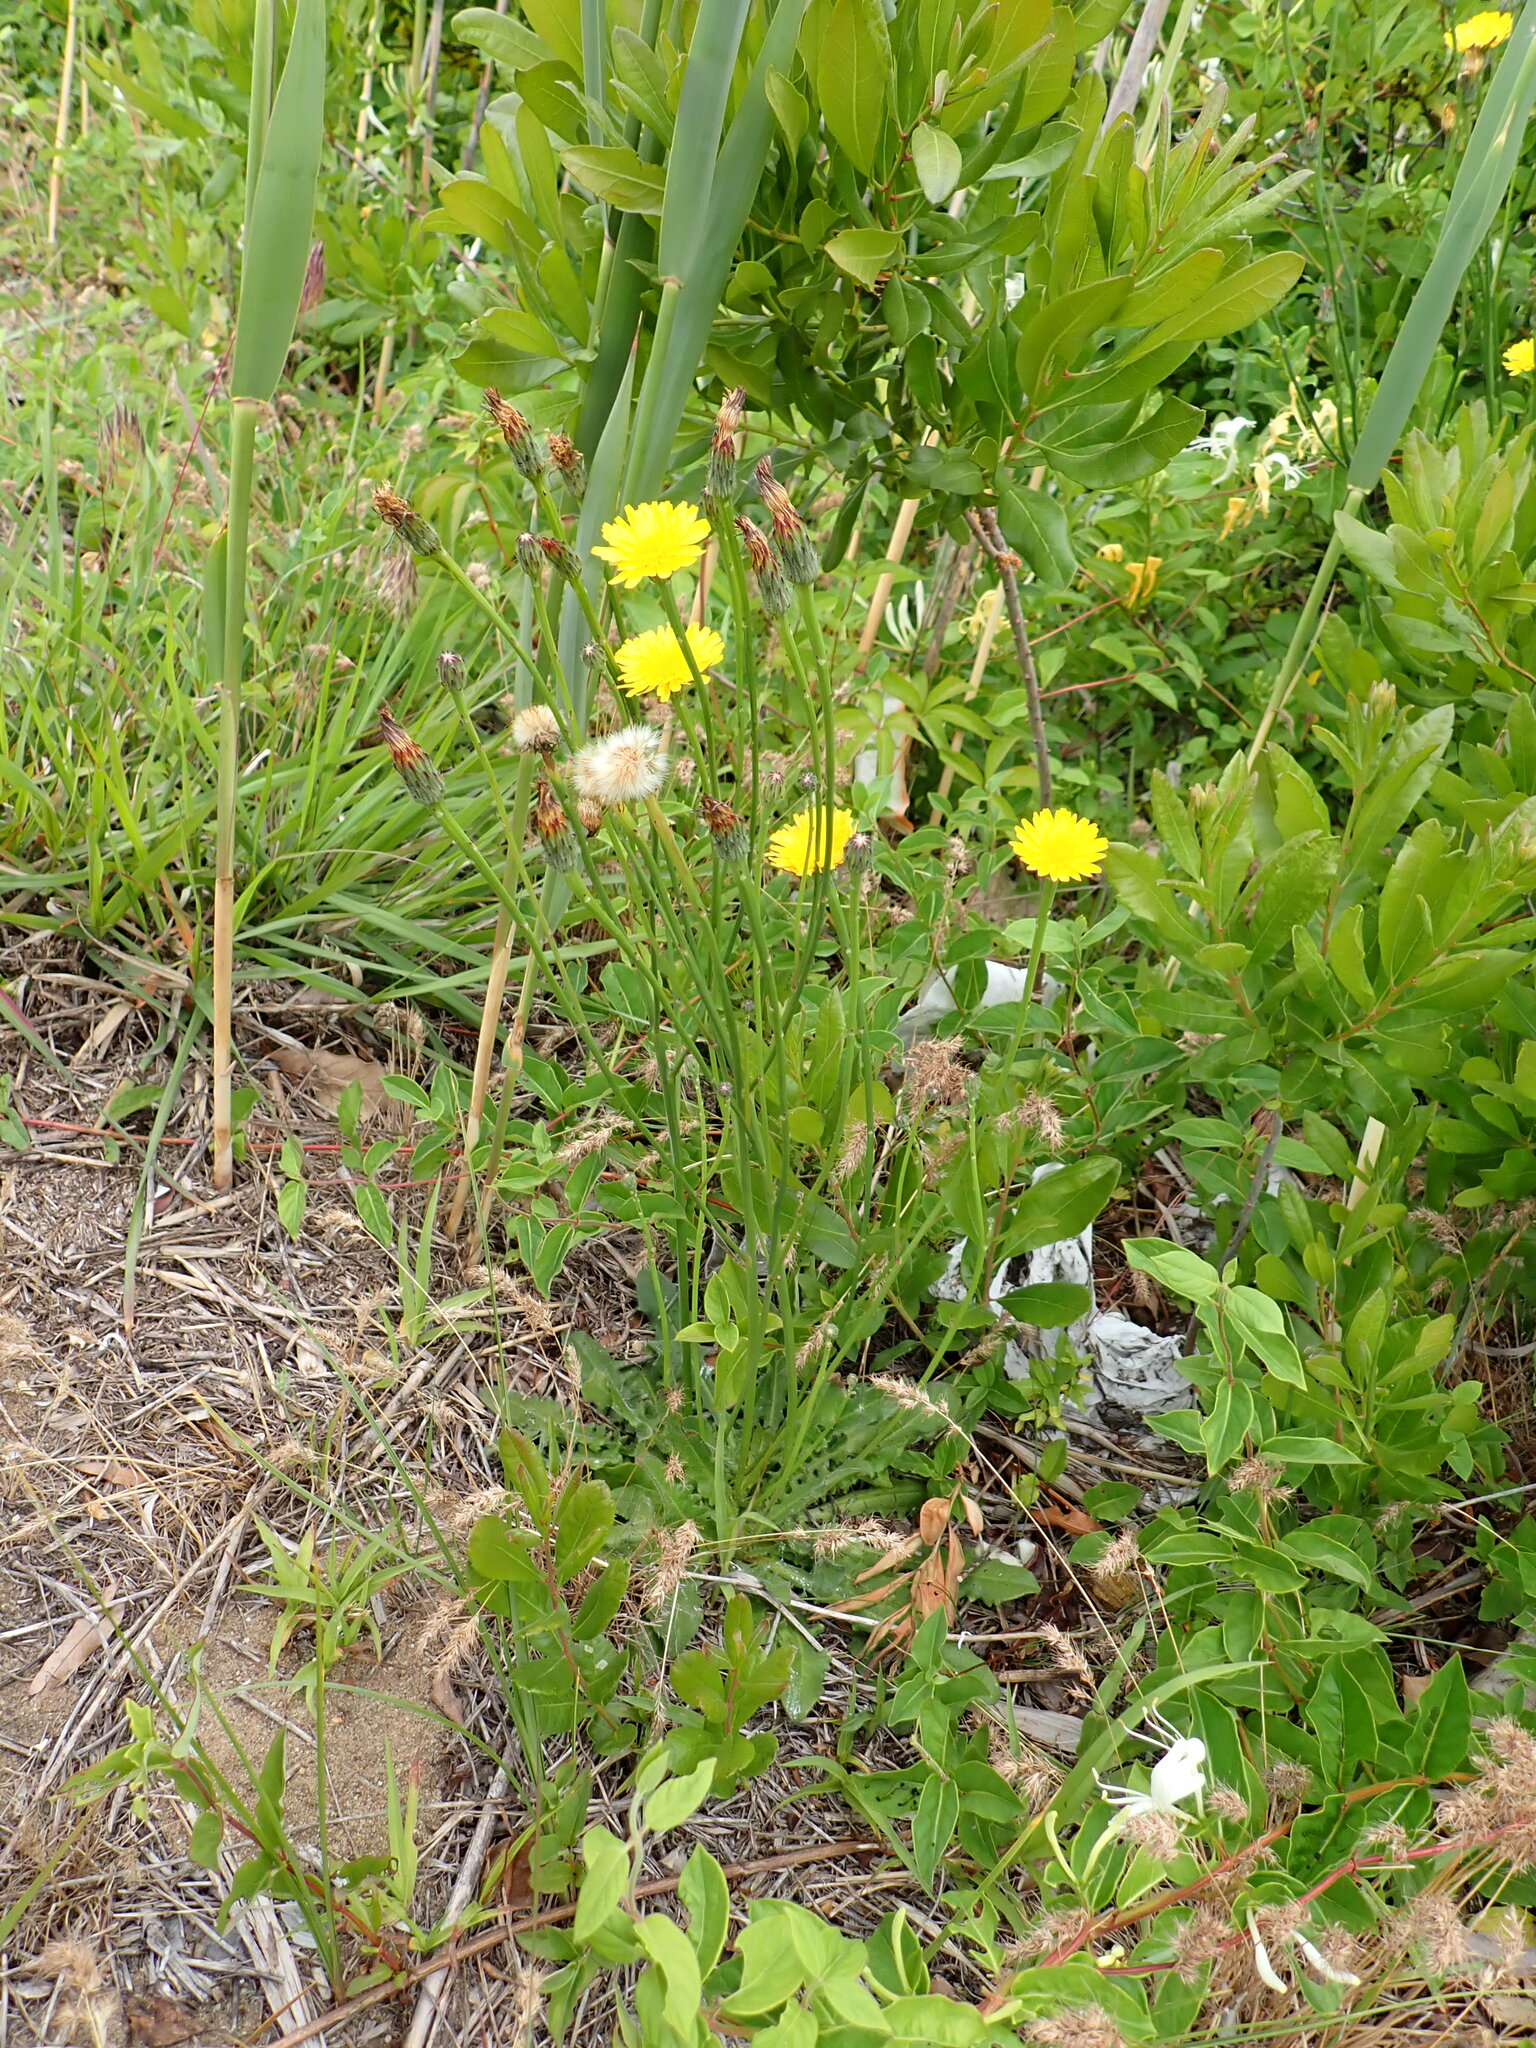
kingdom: Plantae
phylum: Tracheophyta
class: Magnoliopsida
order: Asterales
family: Asteraceae
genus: Hypochaeris
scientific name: Hypochaeris radicata
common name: Flatweed
